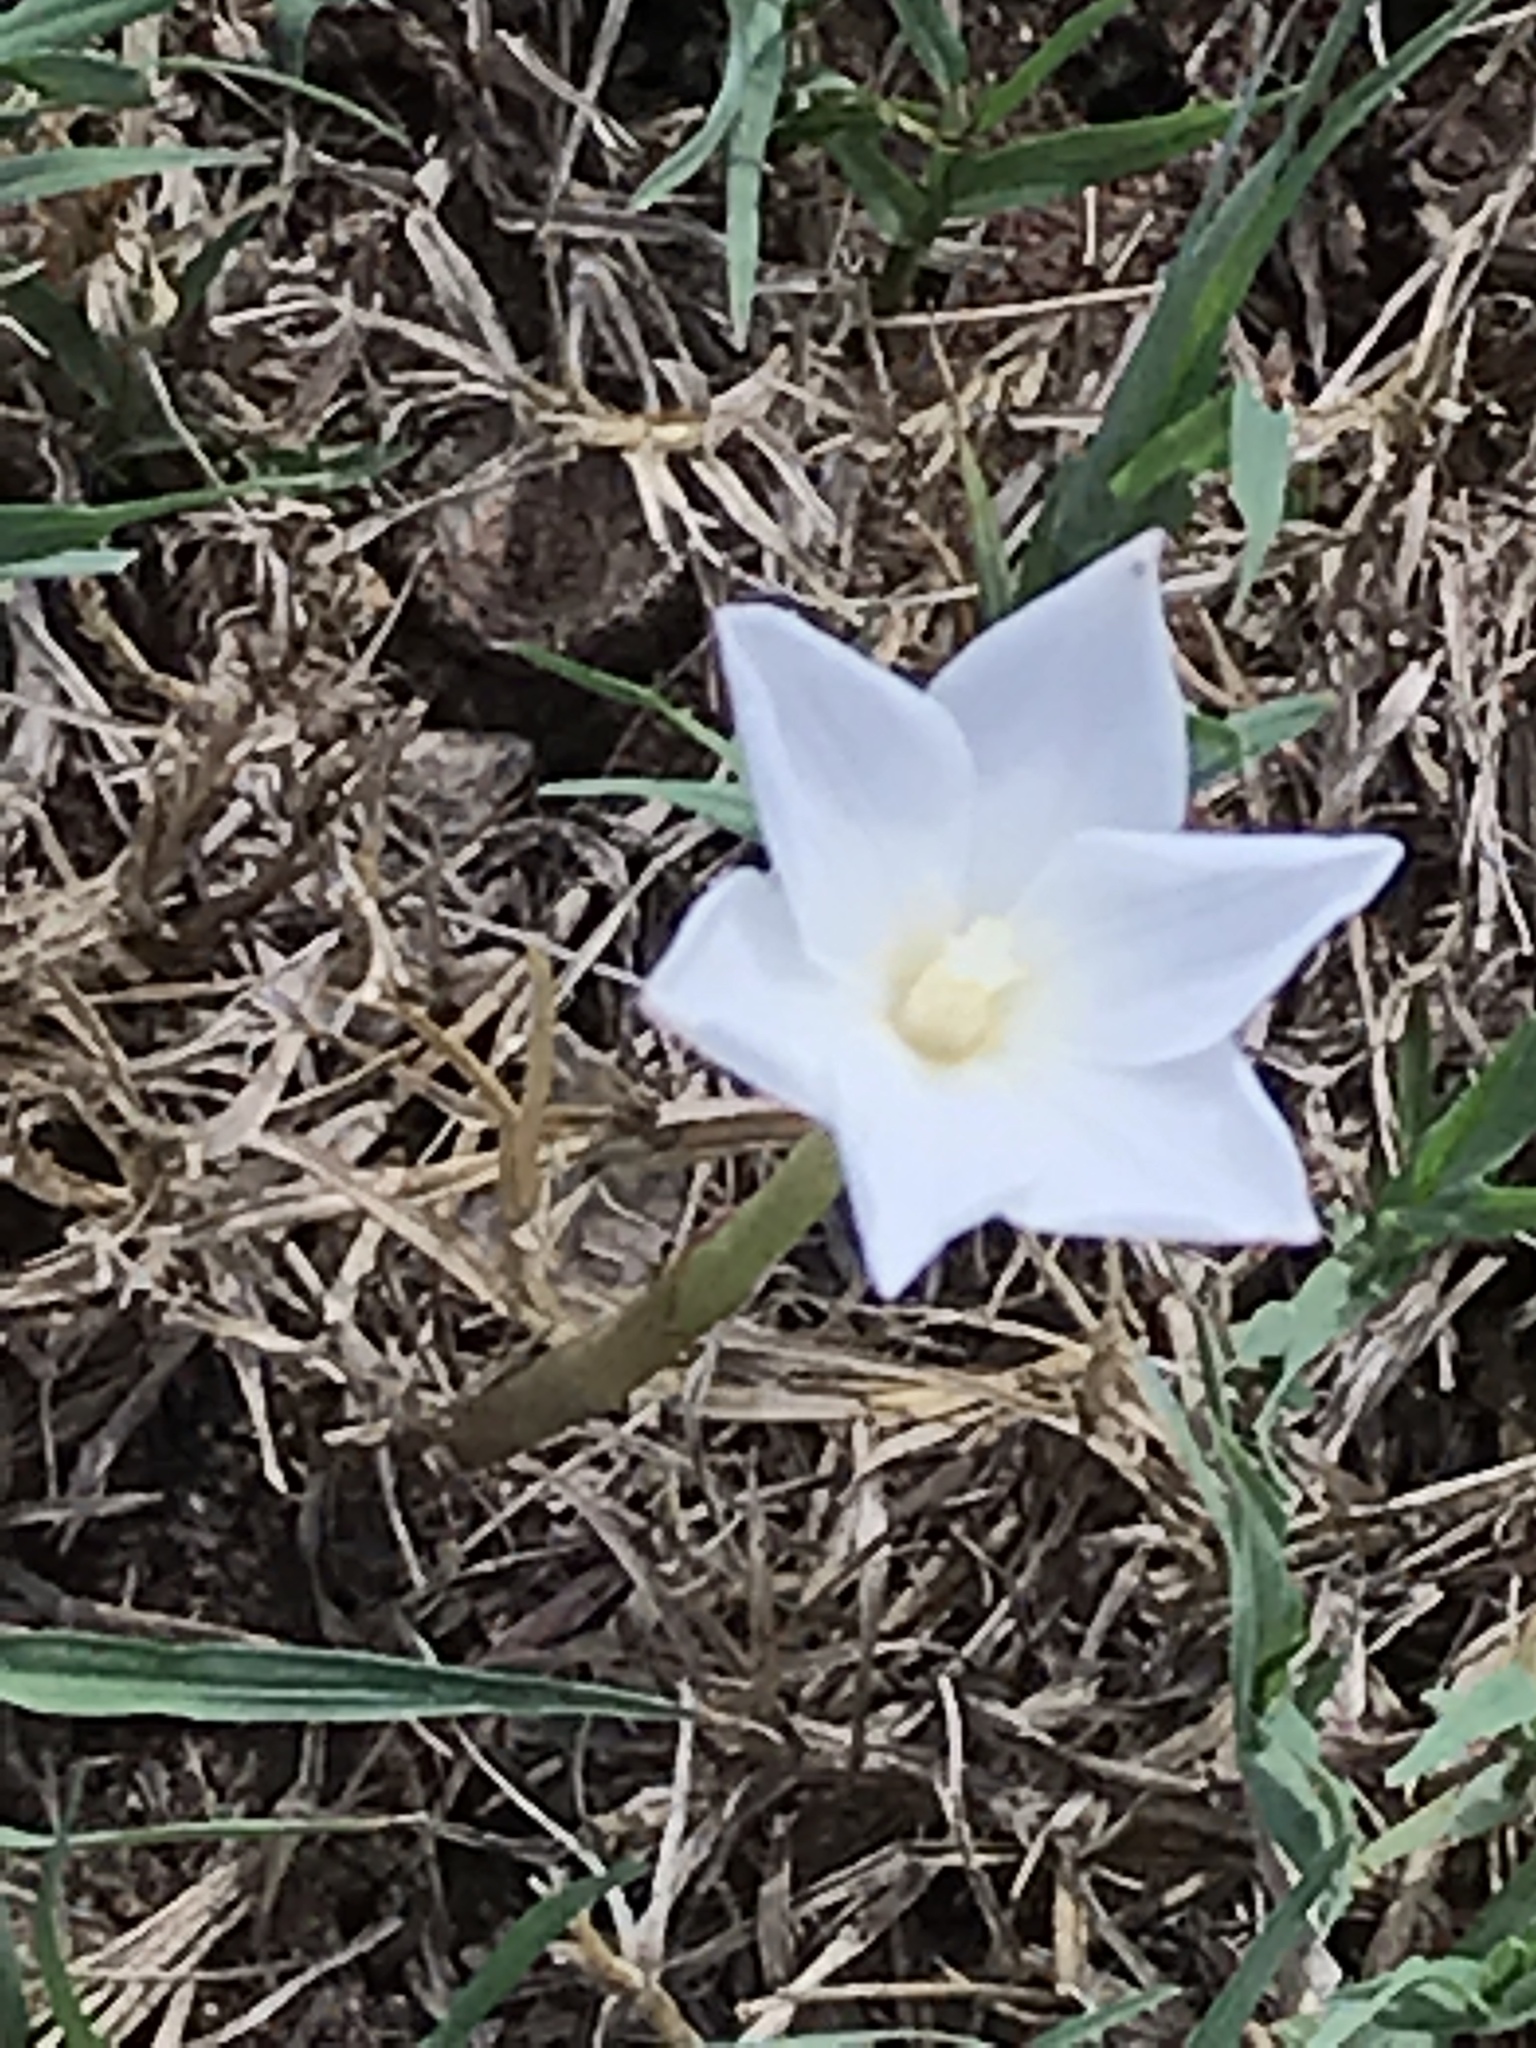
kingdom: Plantae
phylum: Tracheophyta
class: Liliopsida
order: Asparagales
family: Amaryllidaceae
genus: Zephyranthes
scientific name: Zephyranthes chlorosolen
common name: Evening rain-lily
